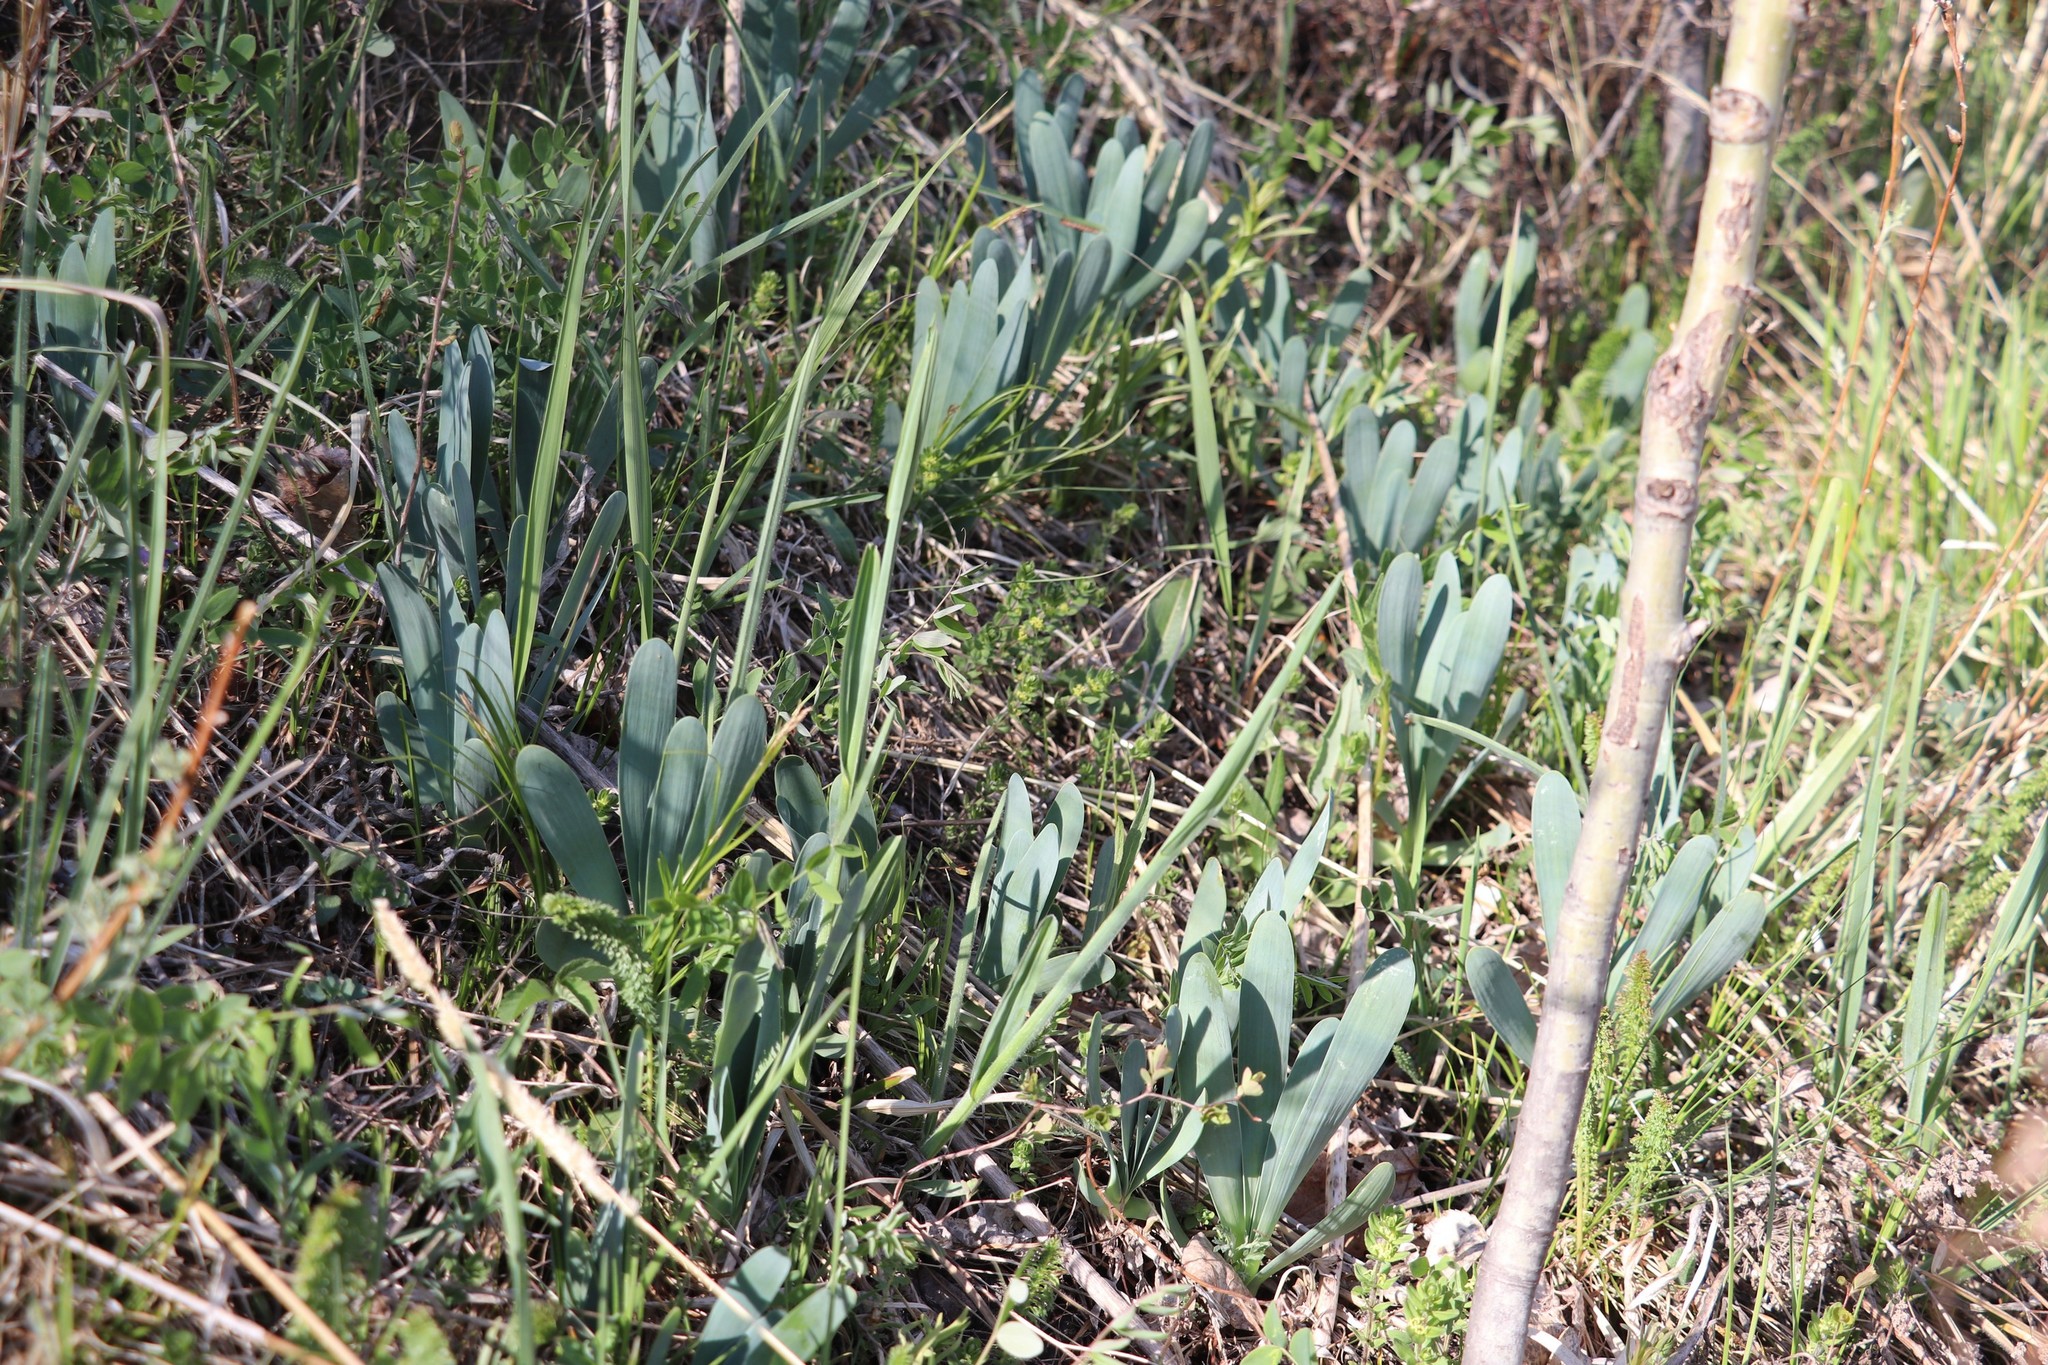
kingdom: Plantae
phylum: Tracheophyta
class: Liliopsida
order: Asparagales
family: Amaryllidaceae
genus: Allium
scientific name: Allium nutans
